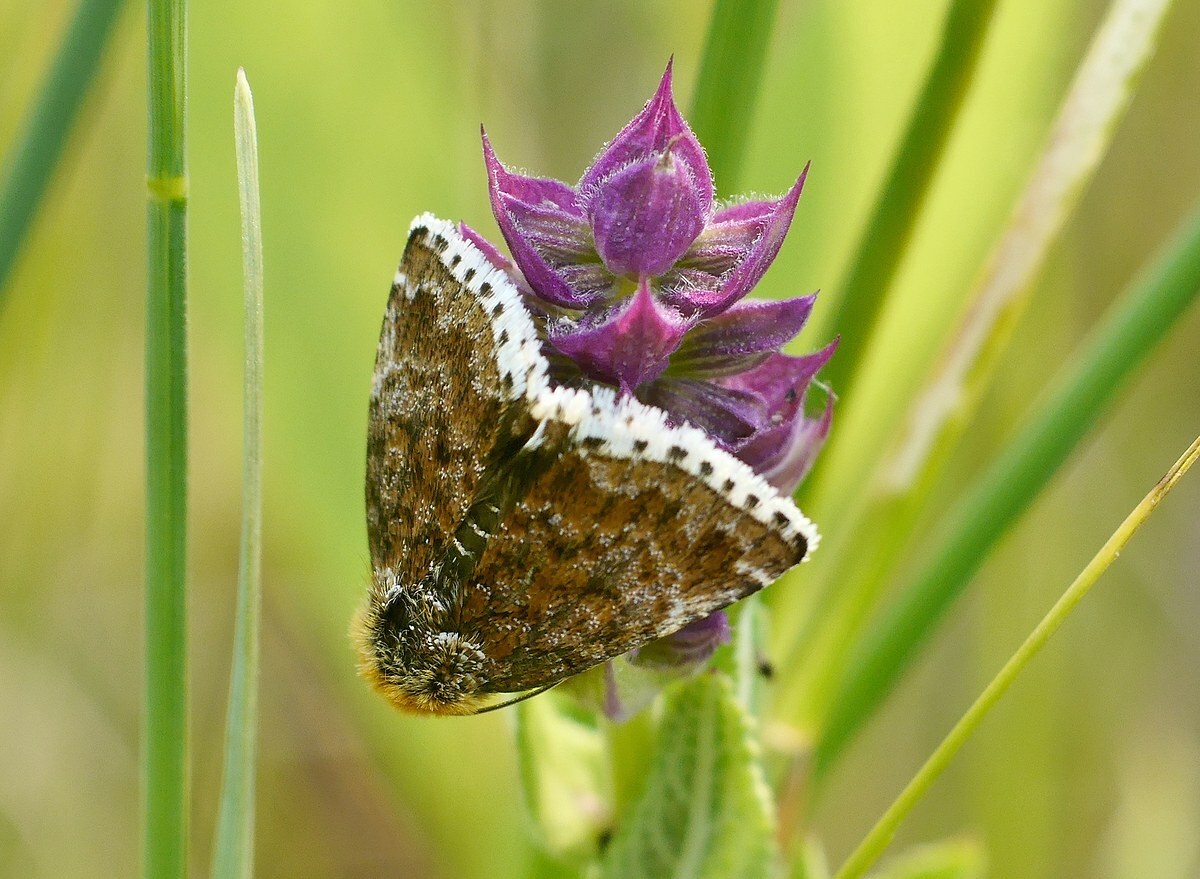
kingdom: Animalia
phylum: Arthropoda
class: Insecta
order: Lepidoptera
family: Noctuidae
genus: Apaustis
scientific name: Apaustis rupicola
